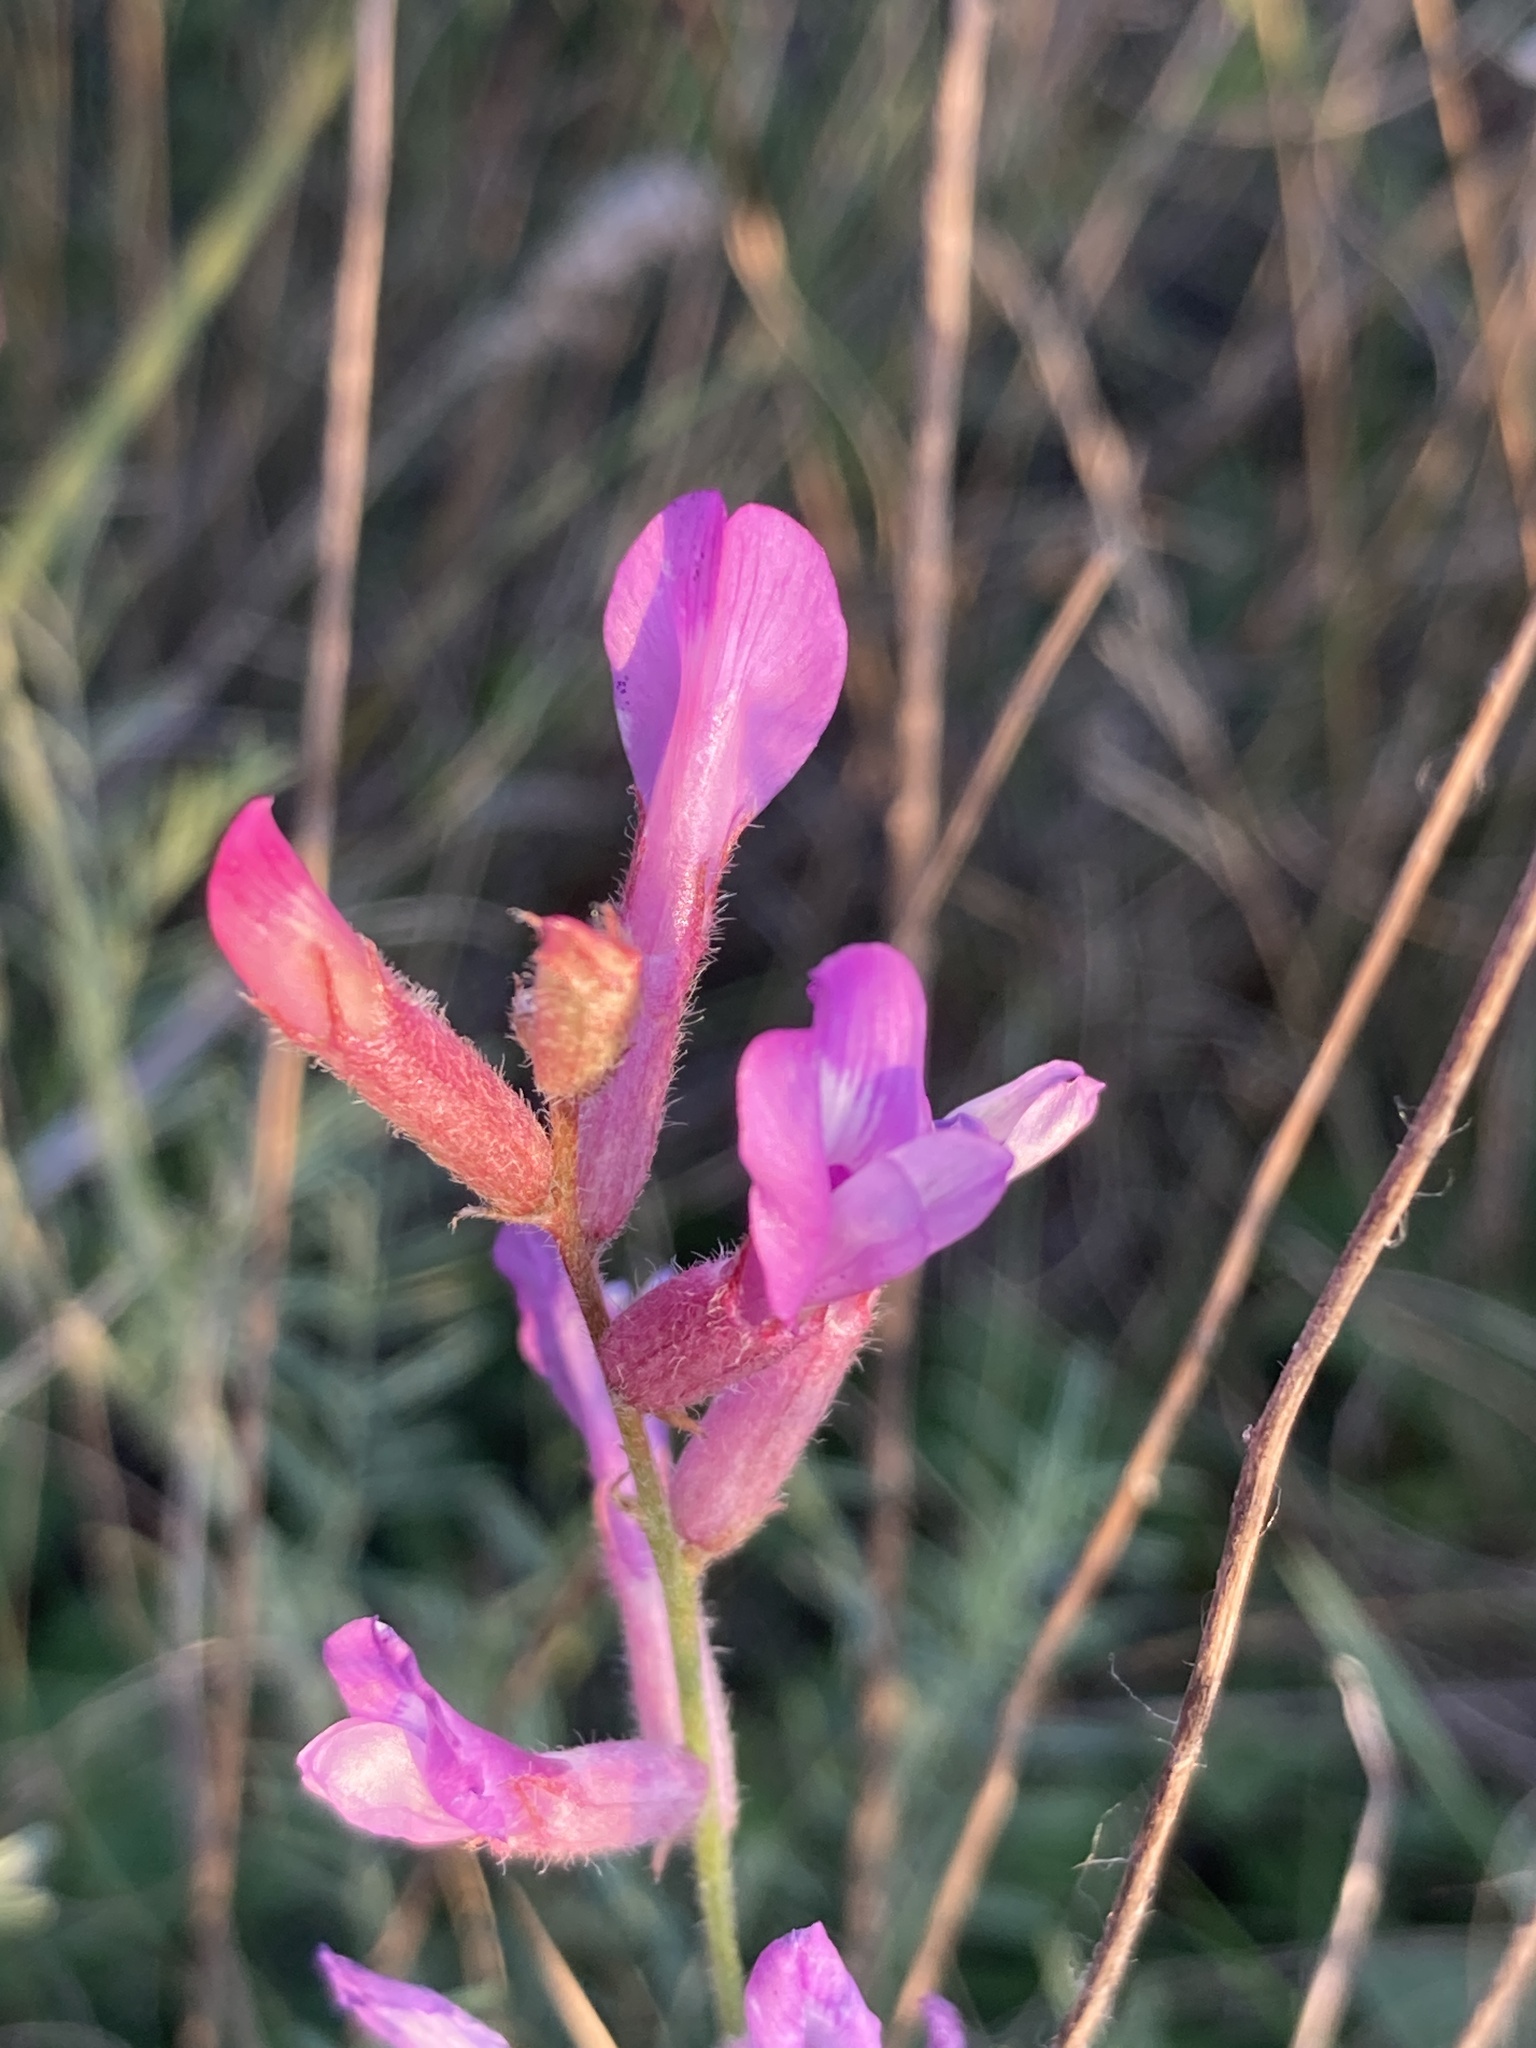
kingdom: Plantae
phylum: Tracheophyta
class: Magnoliopsida
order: Fabales
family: Fabaceae
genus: Astragalus
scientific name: Astragalus varius
